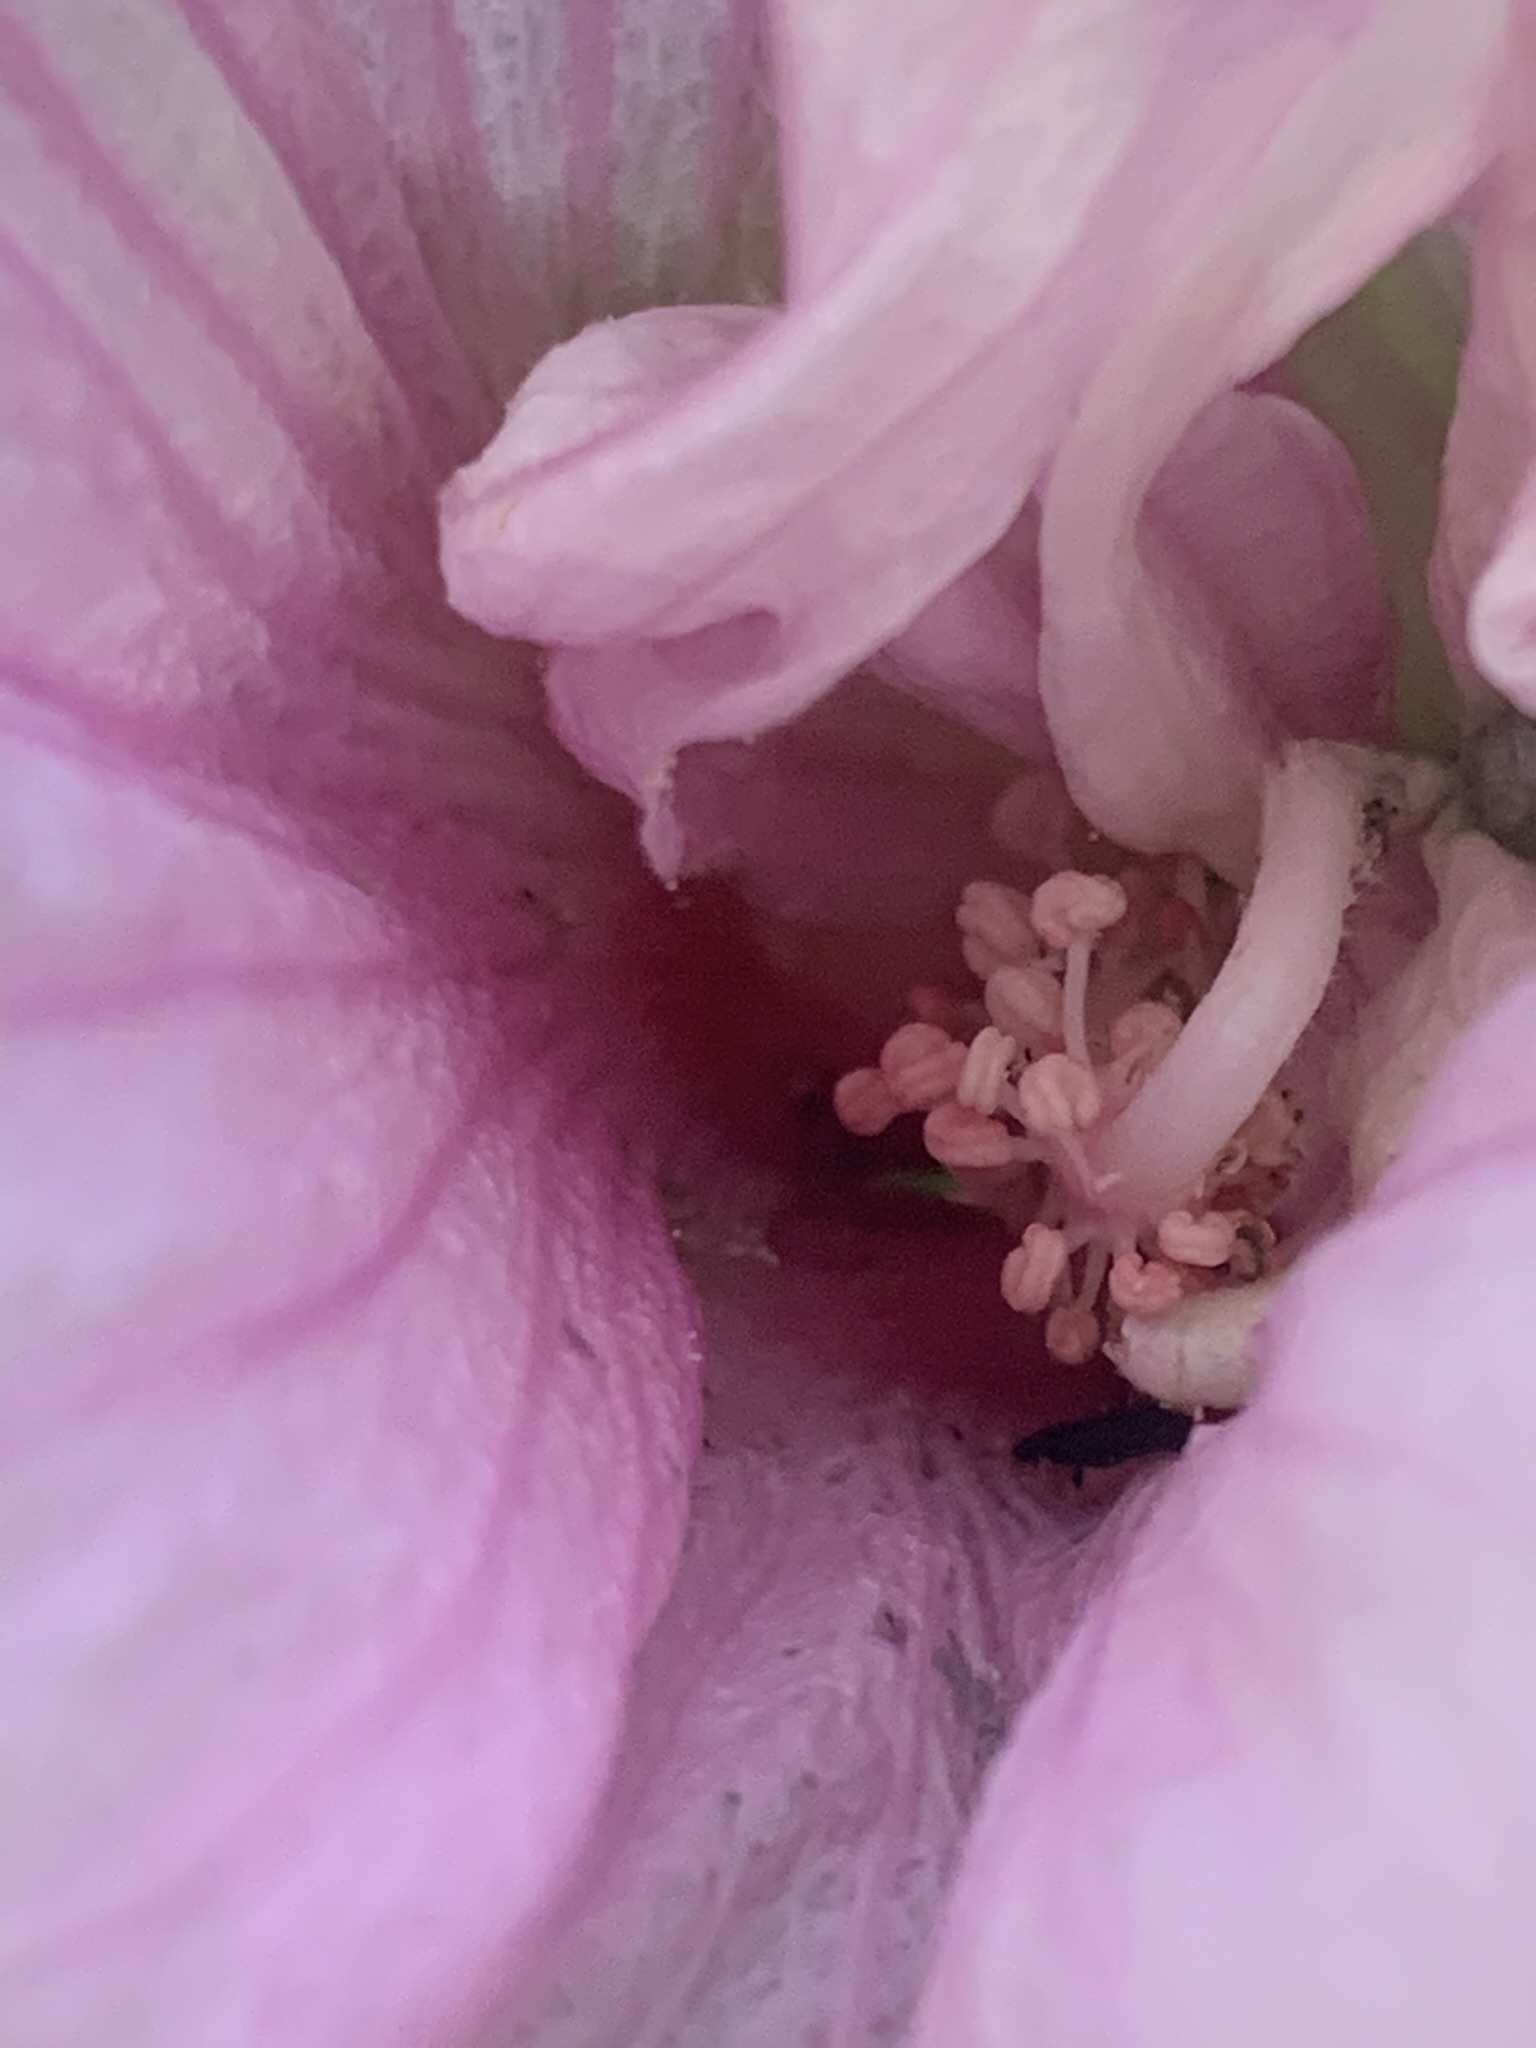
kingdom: Plantae
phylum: Tracheophyta
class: Magnoliopsida
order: Malvales
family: Malvaceae
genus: Hibiscus
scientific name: Hibiscus striatus
